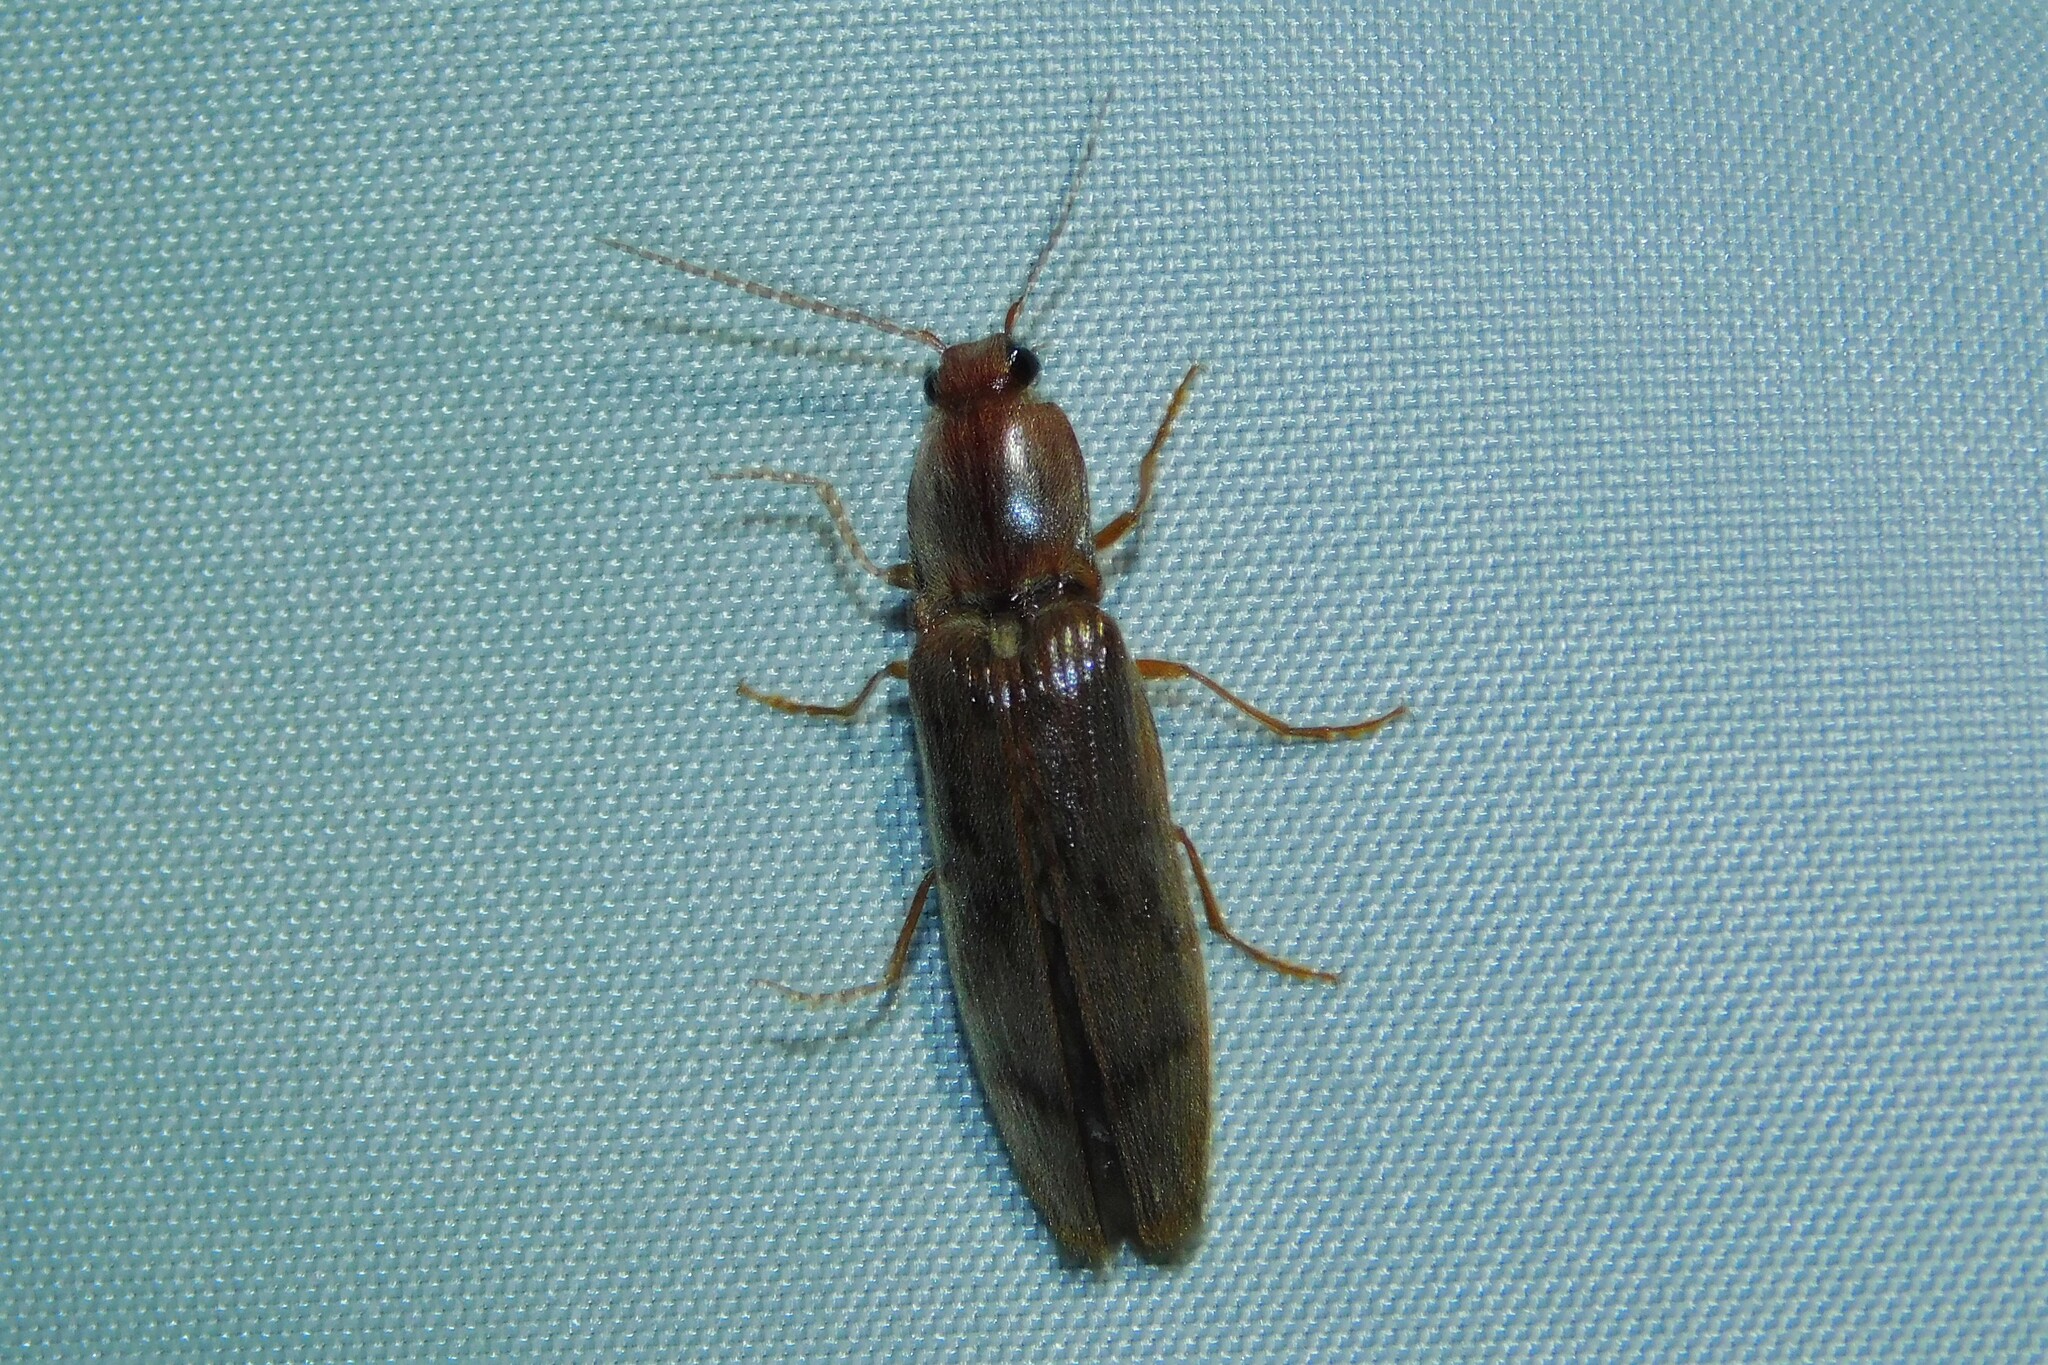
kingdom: Animalia
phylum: Arthropoda
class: Insecta
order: Coleoptera
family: Elateridae
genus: Stenagostus
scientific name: Stenagostus rhombeus
